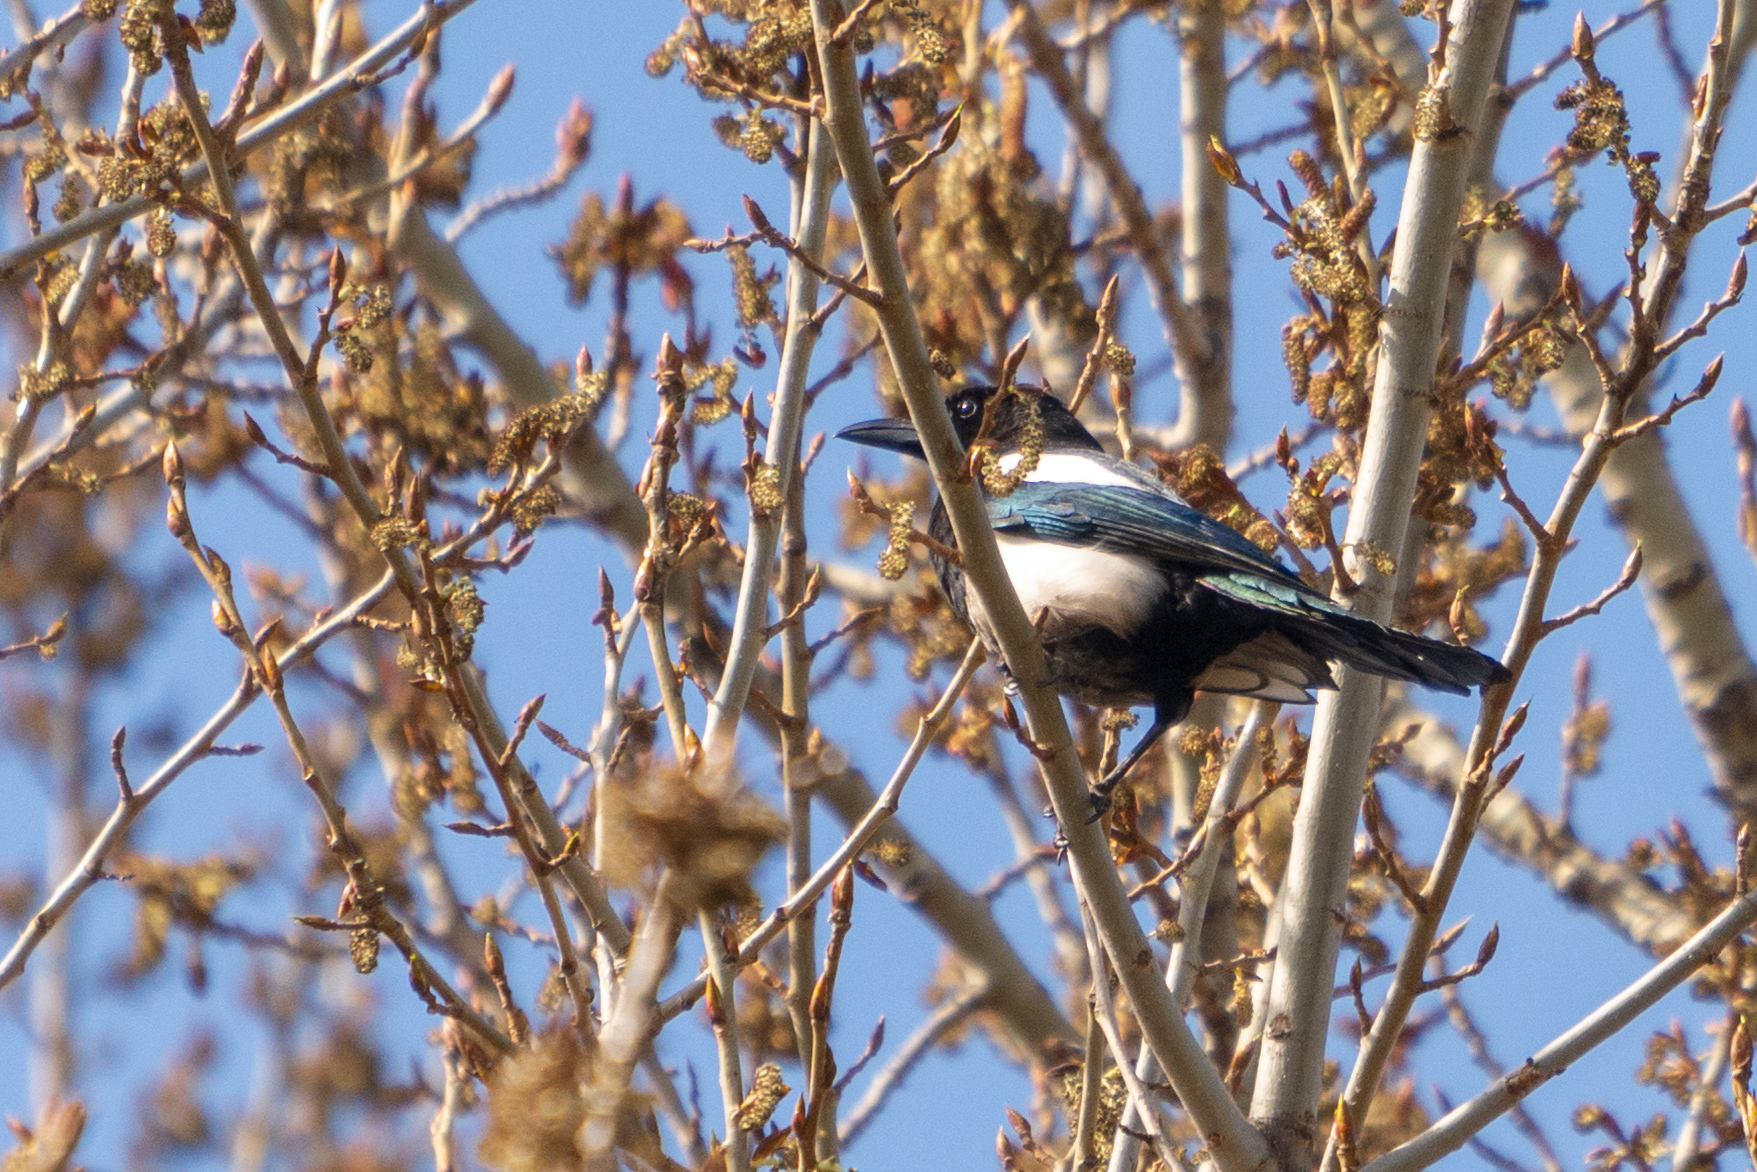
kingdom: Animalia
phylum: Chordata
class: Aves
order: Passeriformes
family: Corvidae
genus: Pica
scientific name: Pica pica
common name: Eurasian magpie
